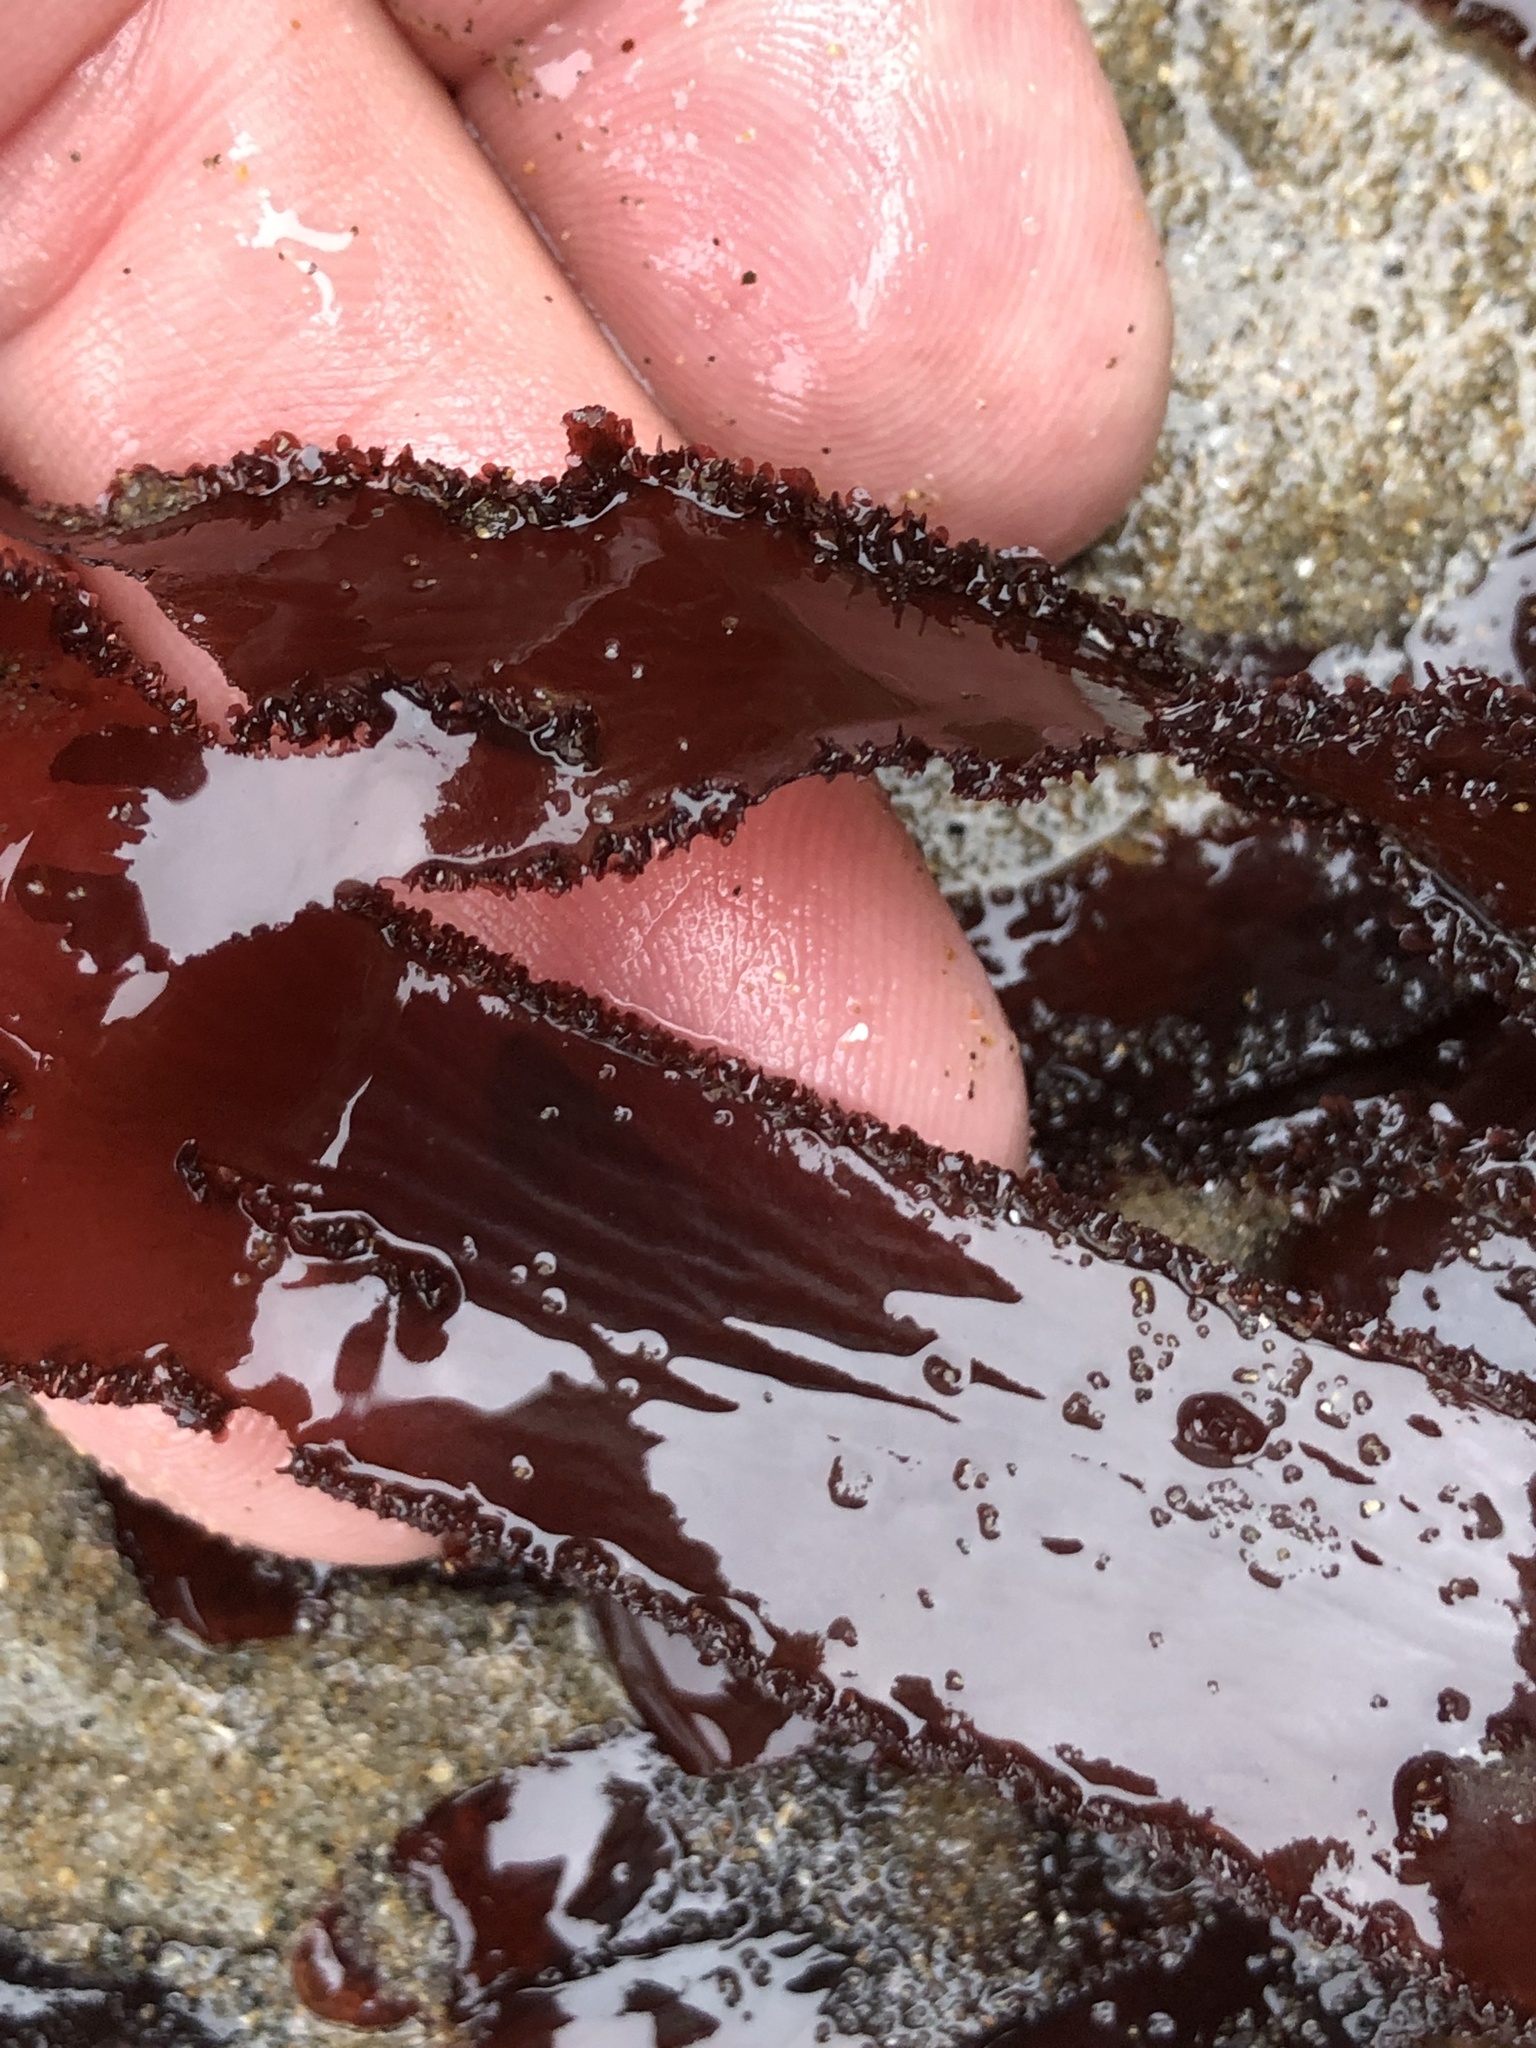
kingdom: Plantae
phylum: Rhodophyta
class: Florideophyceae
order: Ceramiales
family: Delesseriaceae
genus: Cryptopleura
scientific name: Cryptopleura ruprechtiana
